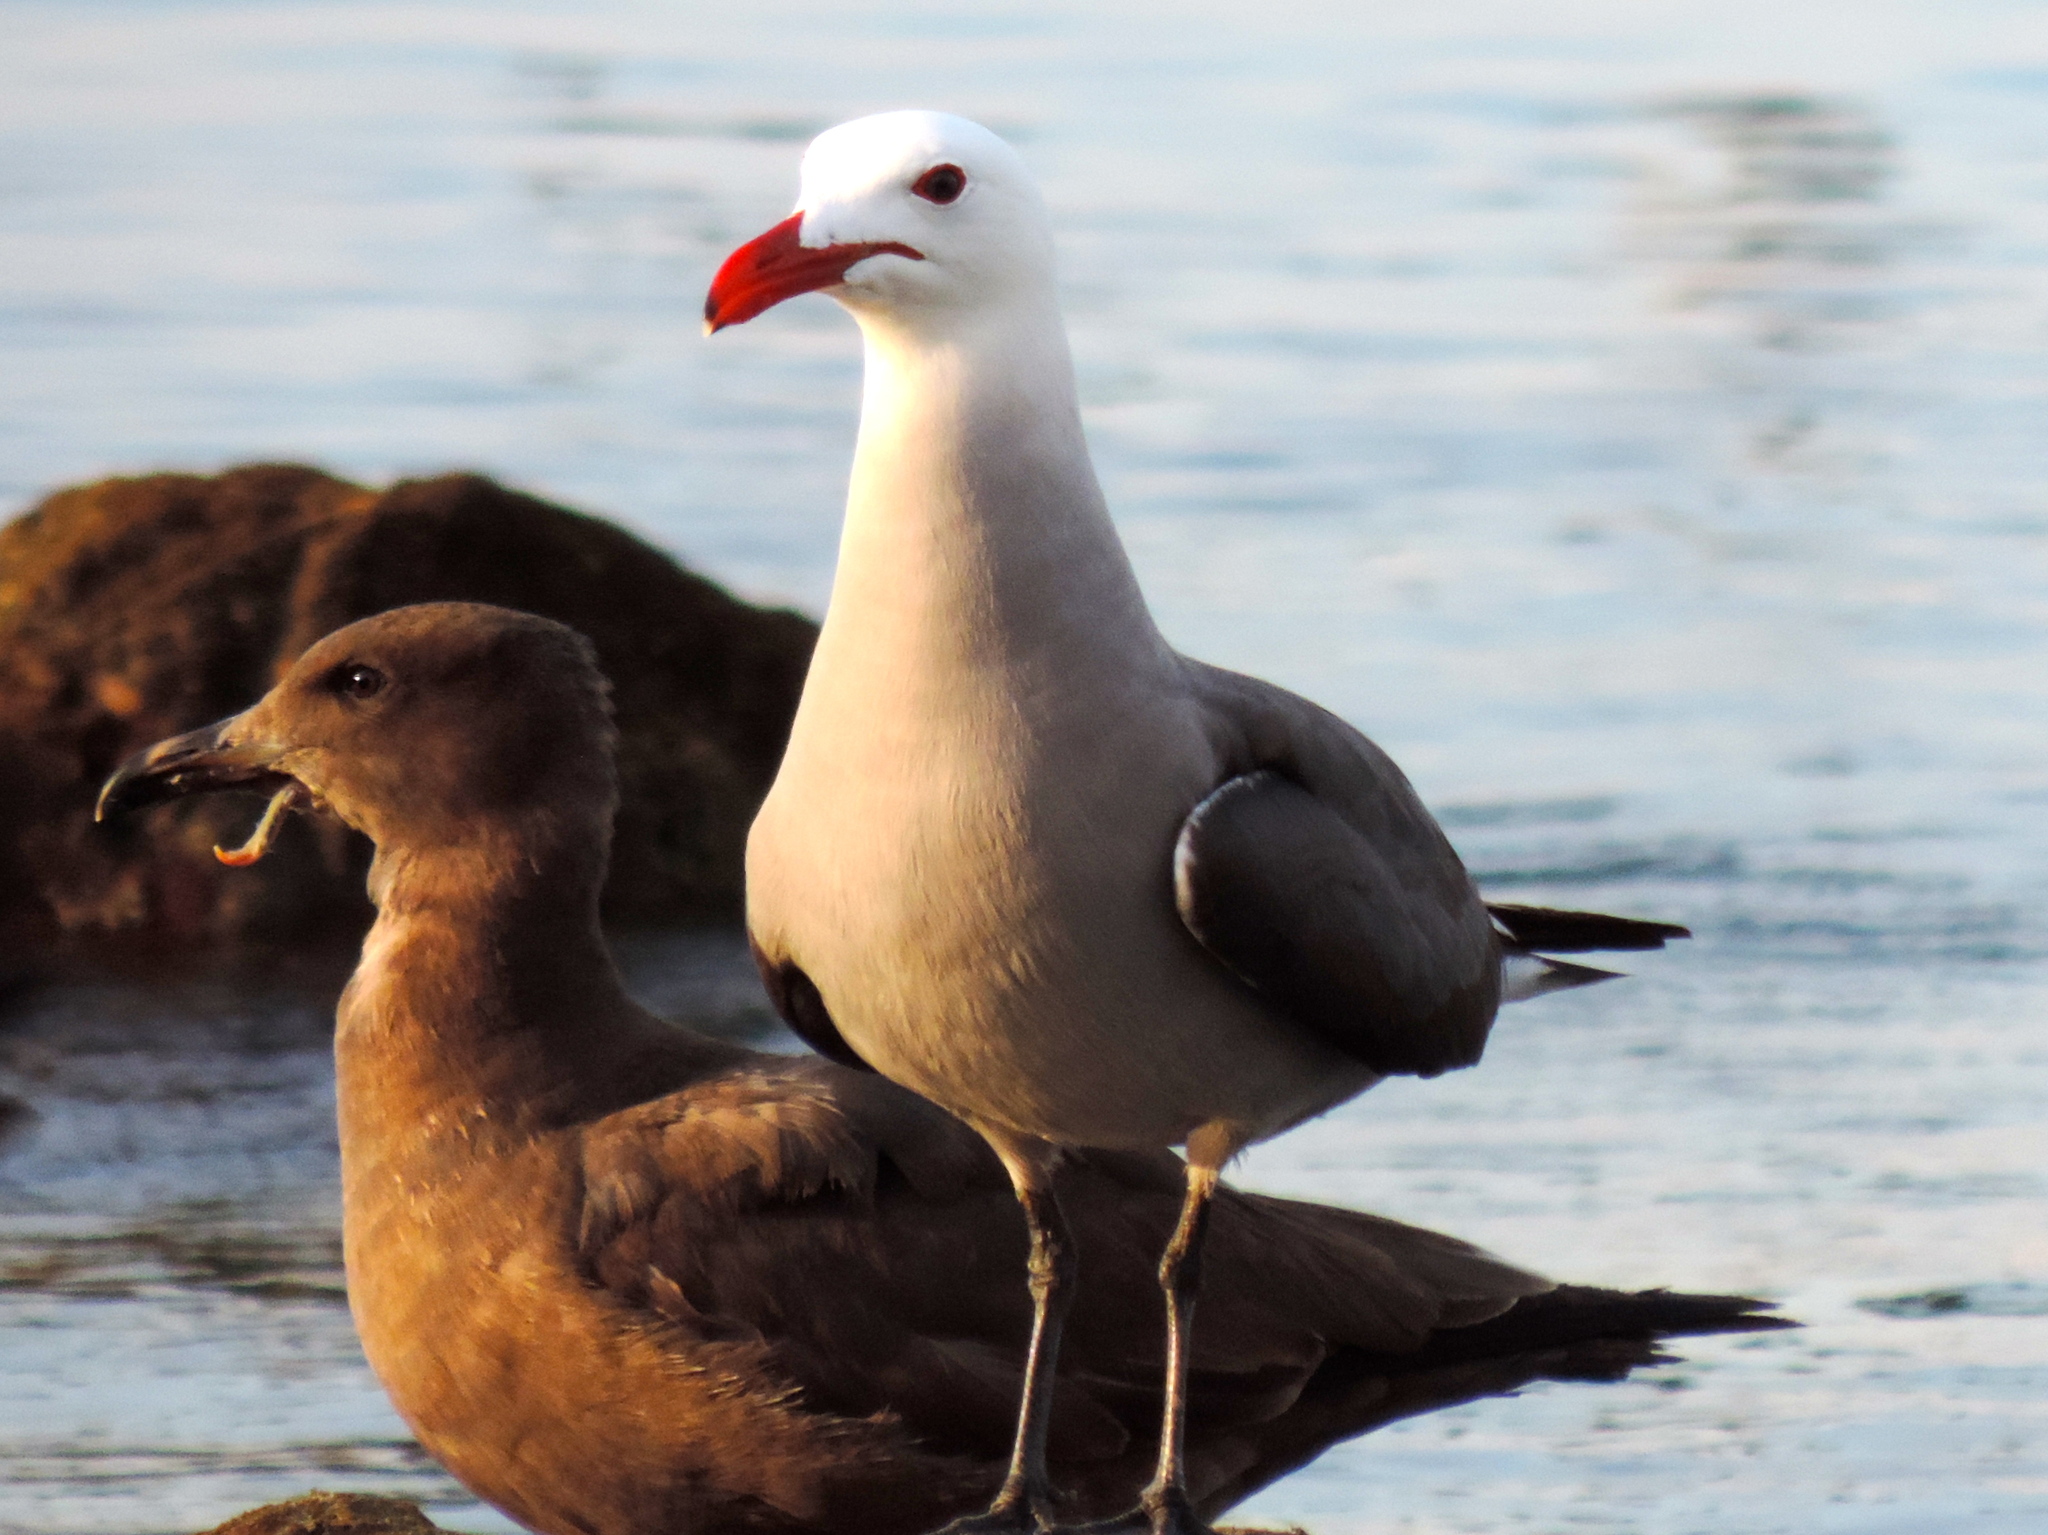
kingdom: Animalia
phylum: Chordata
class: Aves
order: Charadriiformes
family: Laridae
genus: Larus
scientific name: Larus heermanni
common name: Heermann's gull
